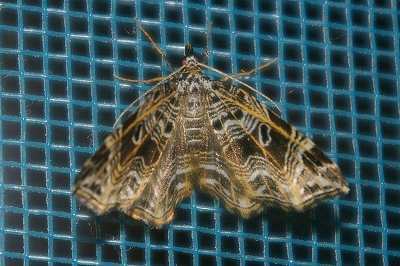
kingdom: Animalia
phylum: Arthropoda
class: Insecta
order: Lepidoptera
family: Geometridae
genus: Lobogonodes
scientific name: Lobogonodes erectaria
